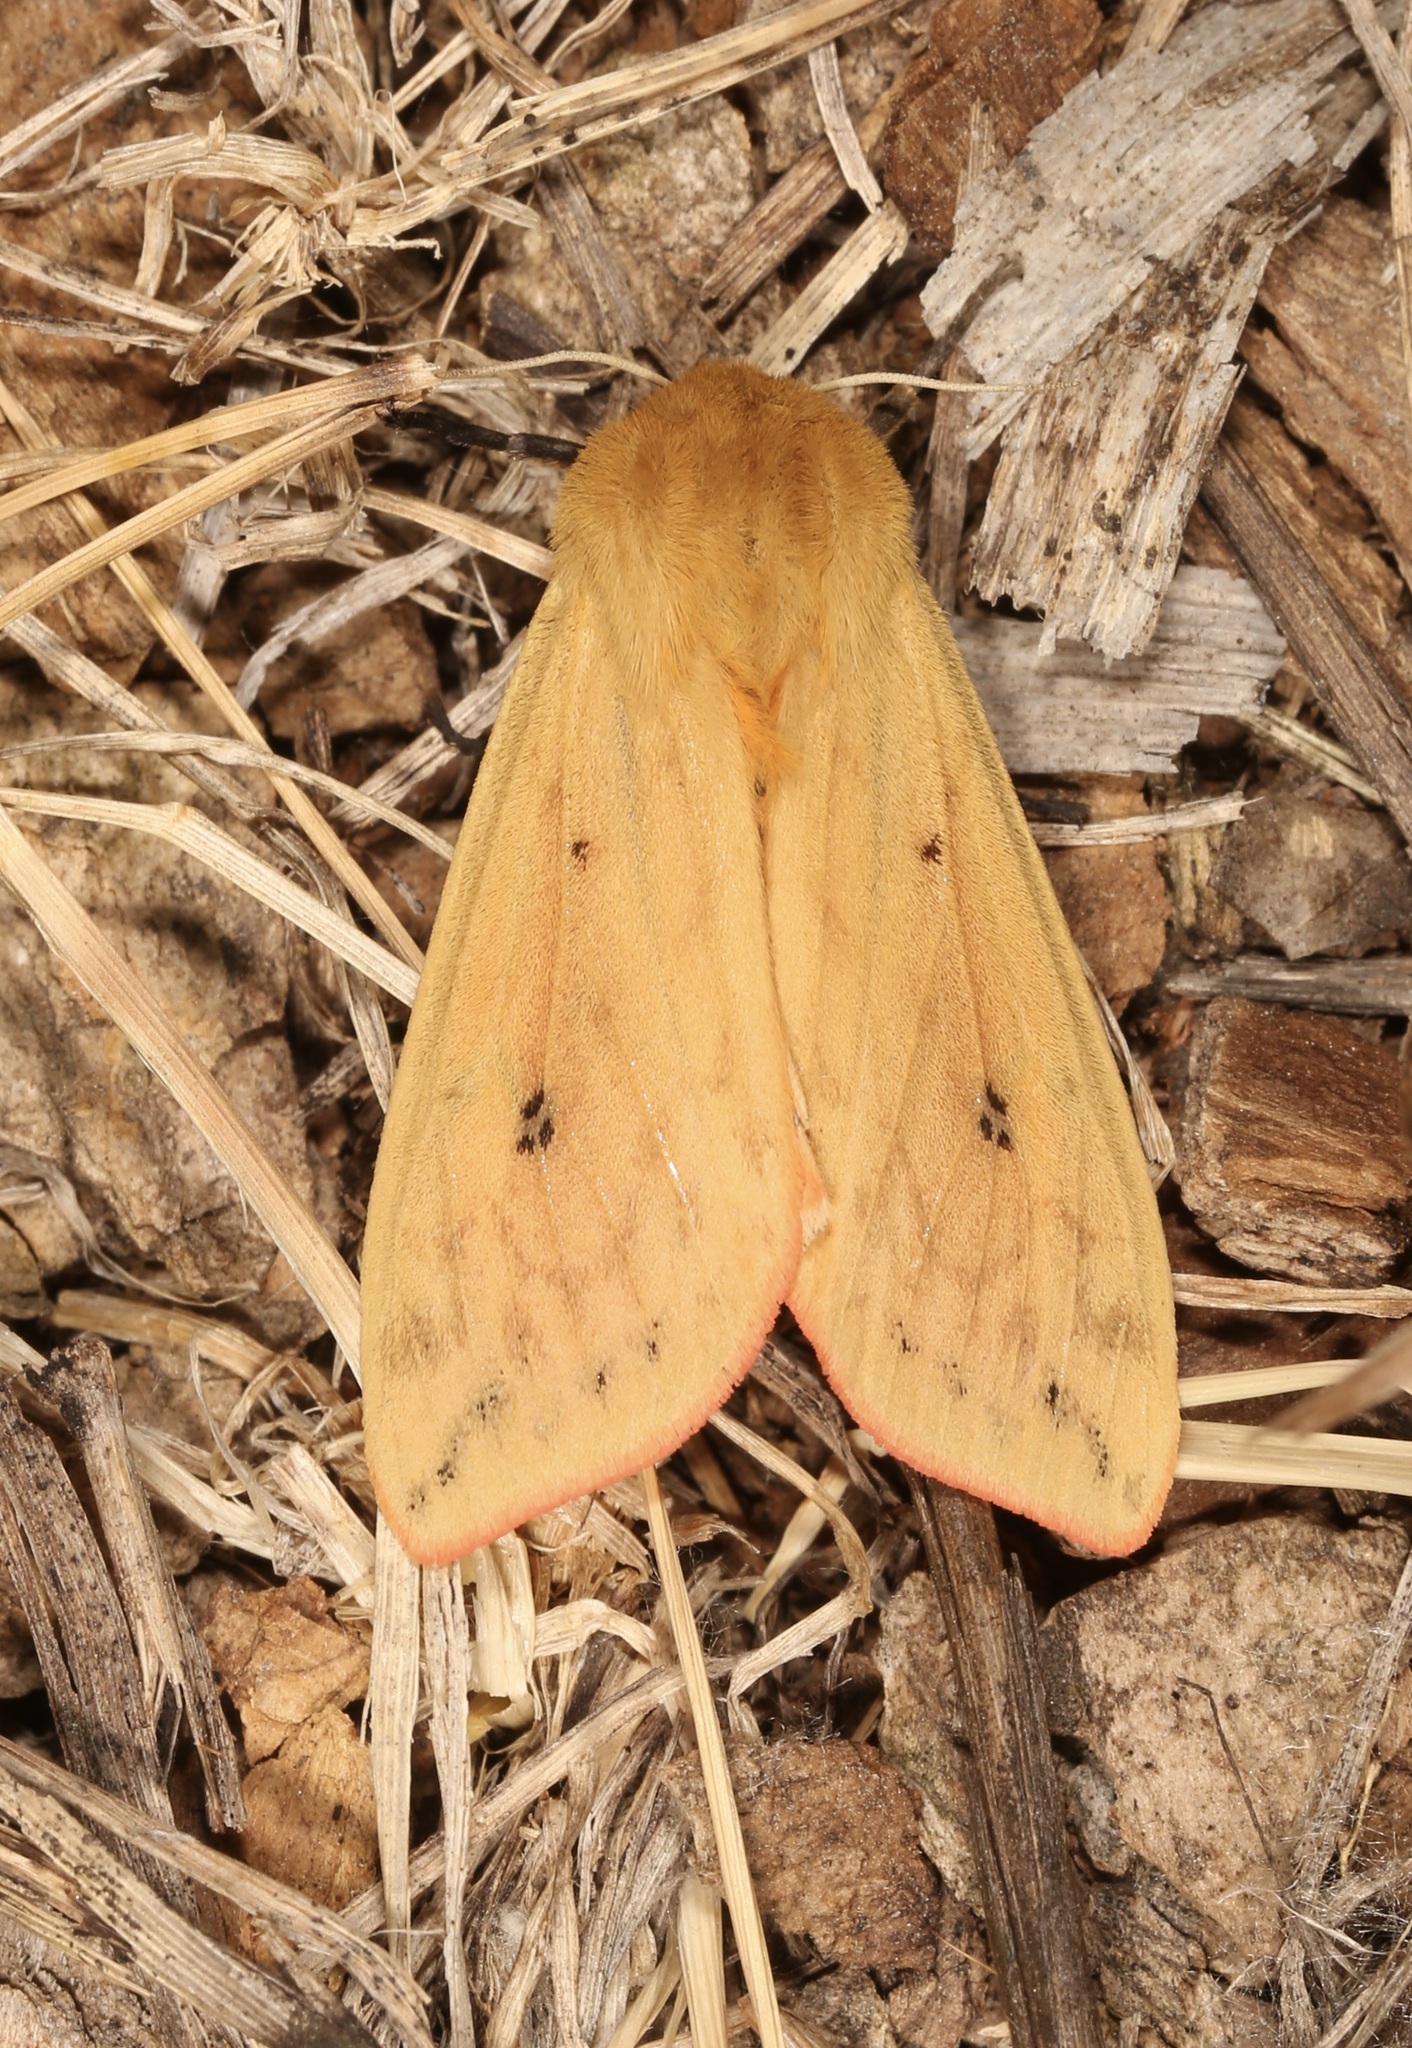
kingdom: Animalia
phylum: Arthropoda
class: Insecta
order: Lepidoptera
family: Erebidae
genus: Pyrrharctia
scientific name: Pyrrharctia isabella
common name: Isabella tiger moth
